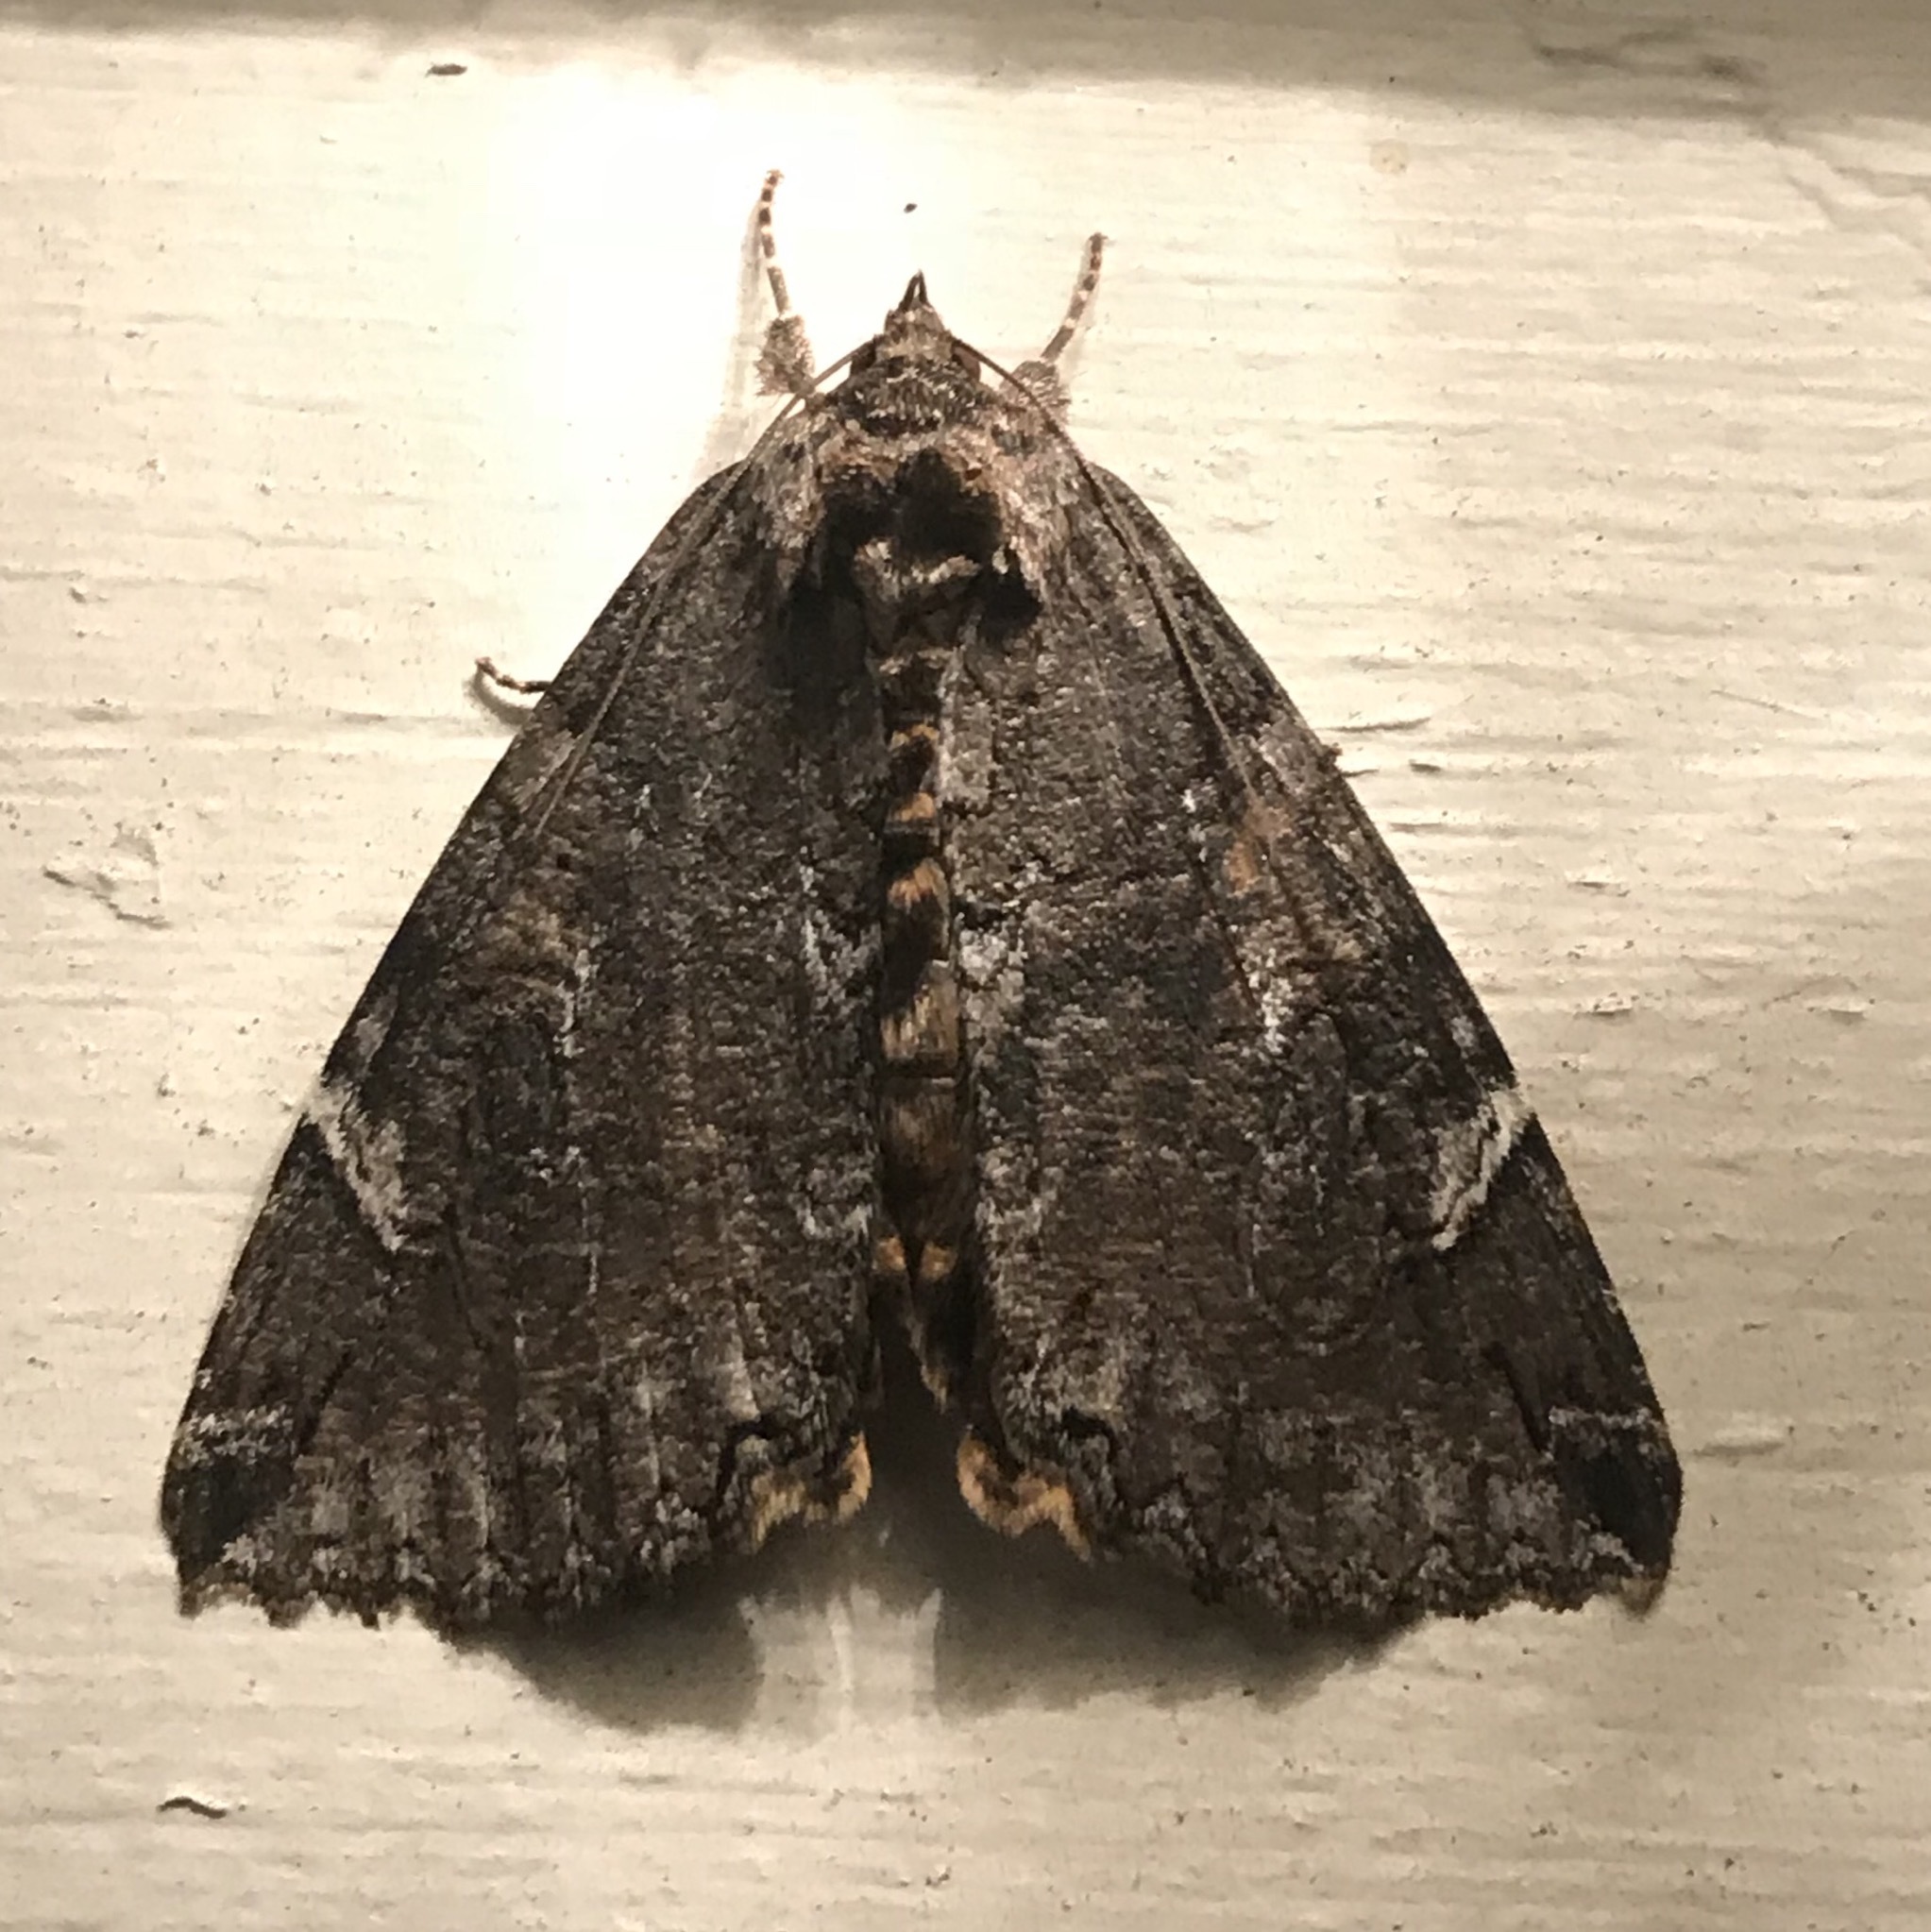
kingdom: Animalia
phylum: Arthropoda
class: Insecta
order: Lepidoptera
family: Erebidae
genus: Euparthenos
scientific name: Euparthenos nubilis
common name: Locust underwing
